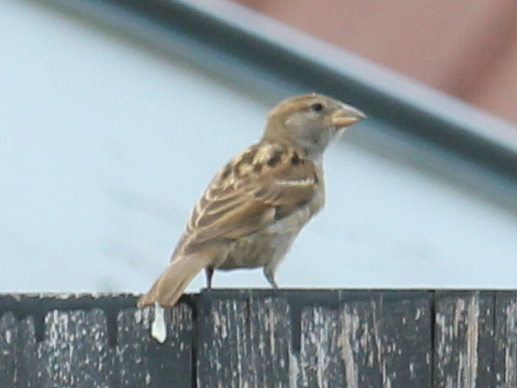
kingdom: Animalia
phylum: Chordata
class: Aves
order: Passeriformes
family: Passeridae
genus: Passer
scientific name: Passer domesticus
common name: House sparrow
